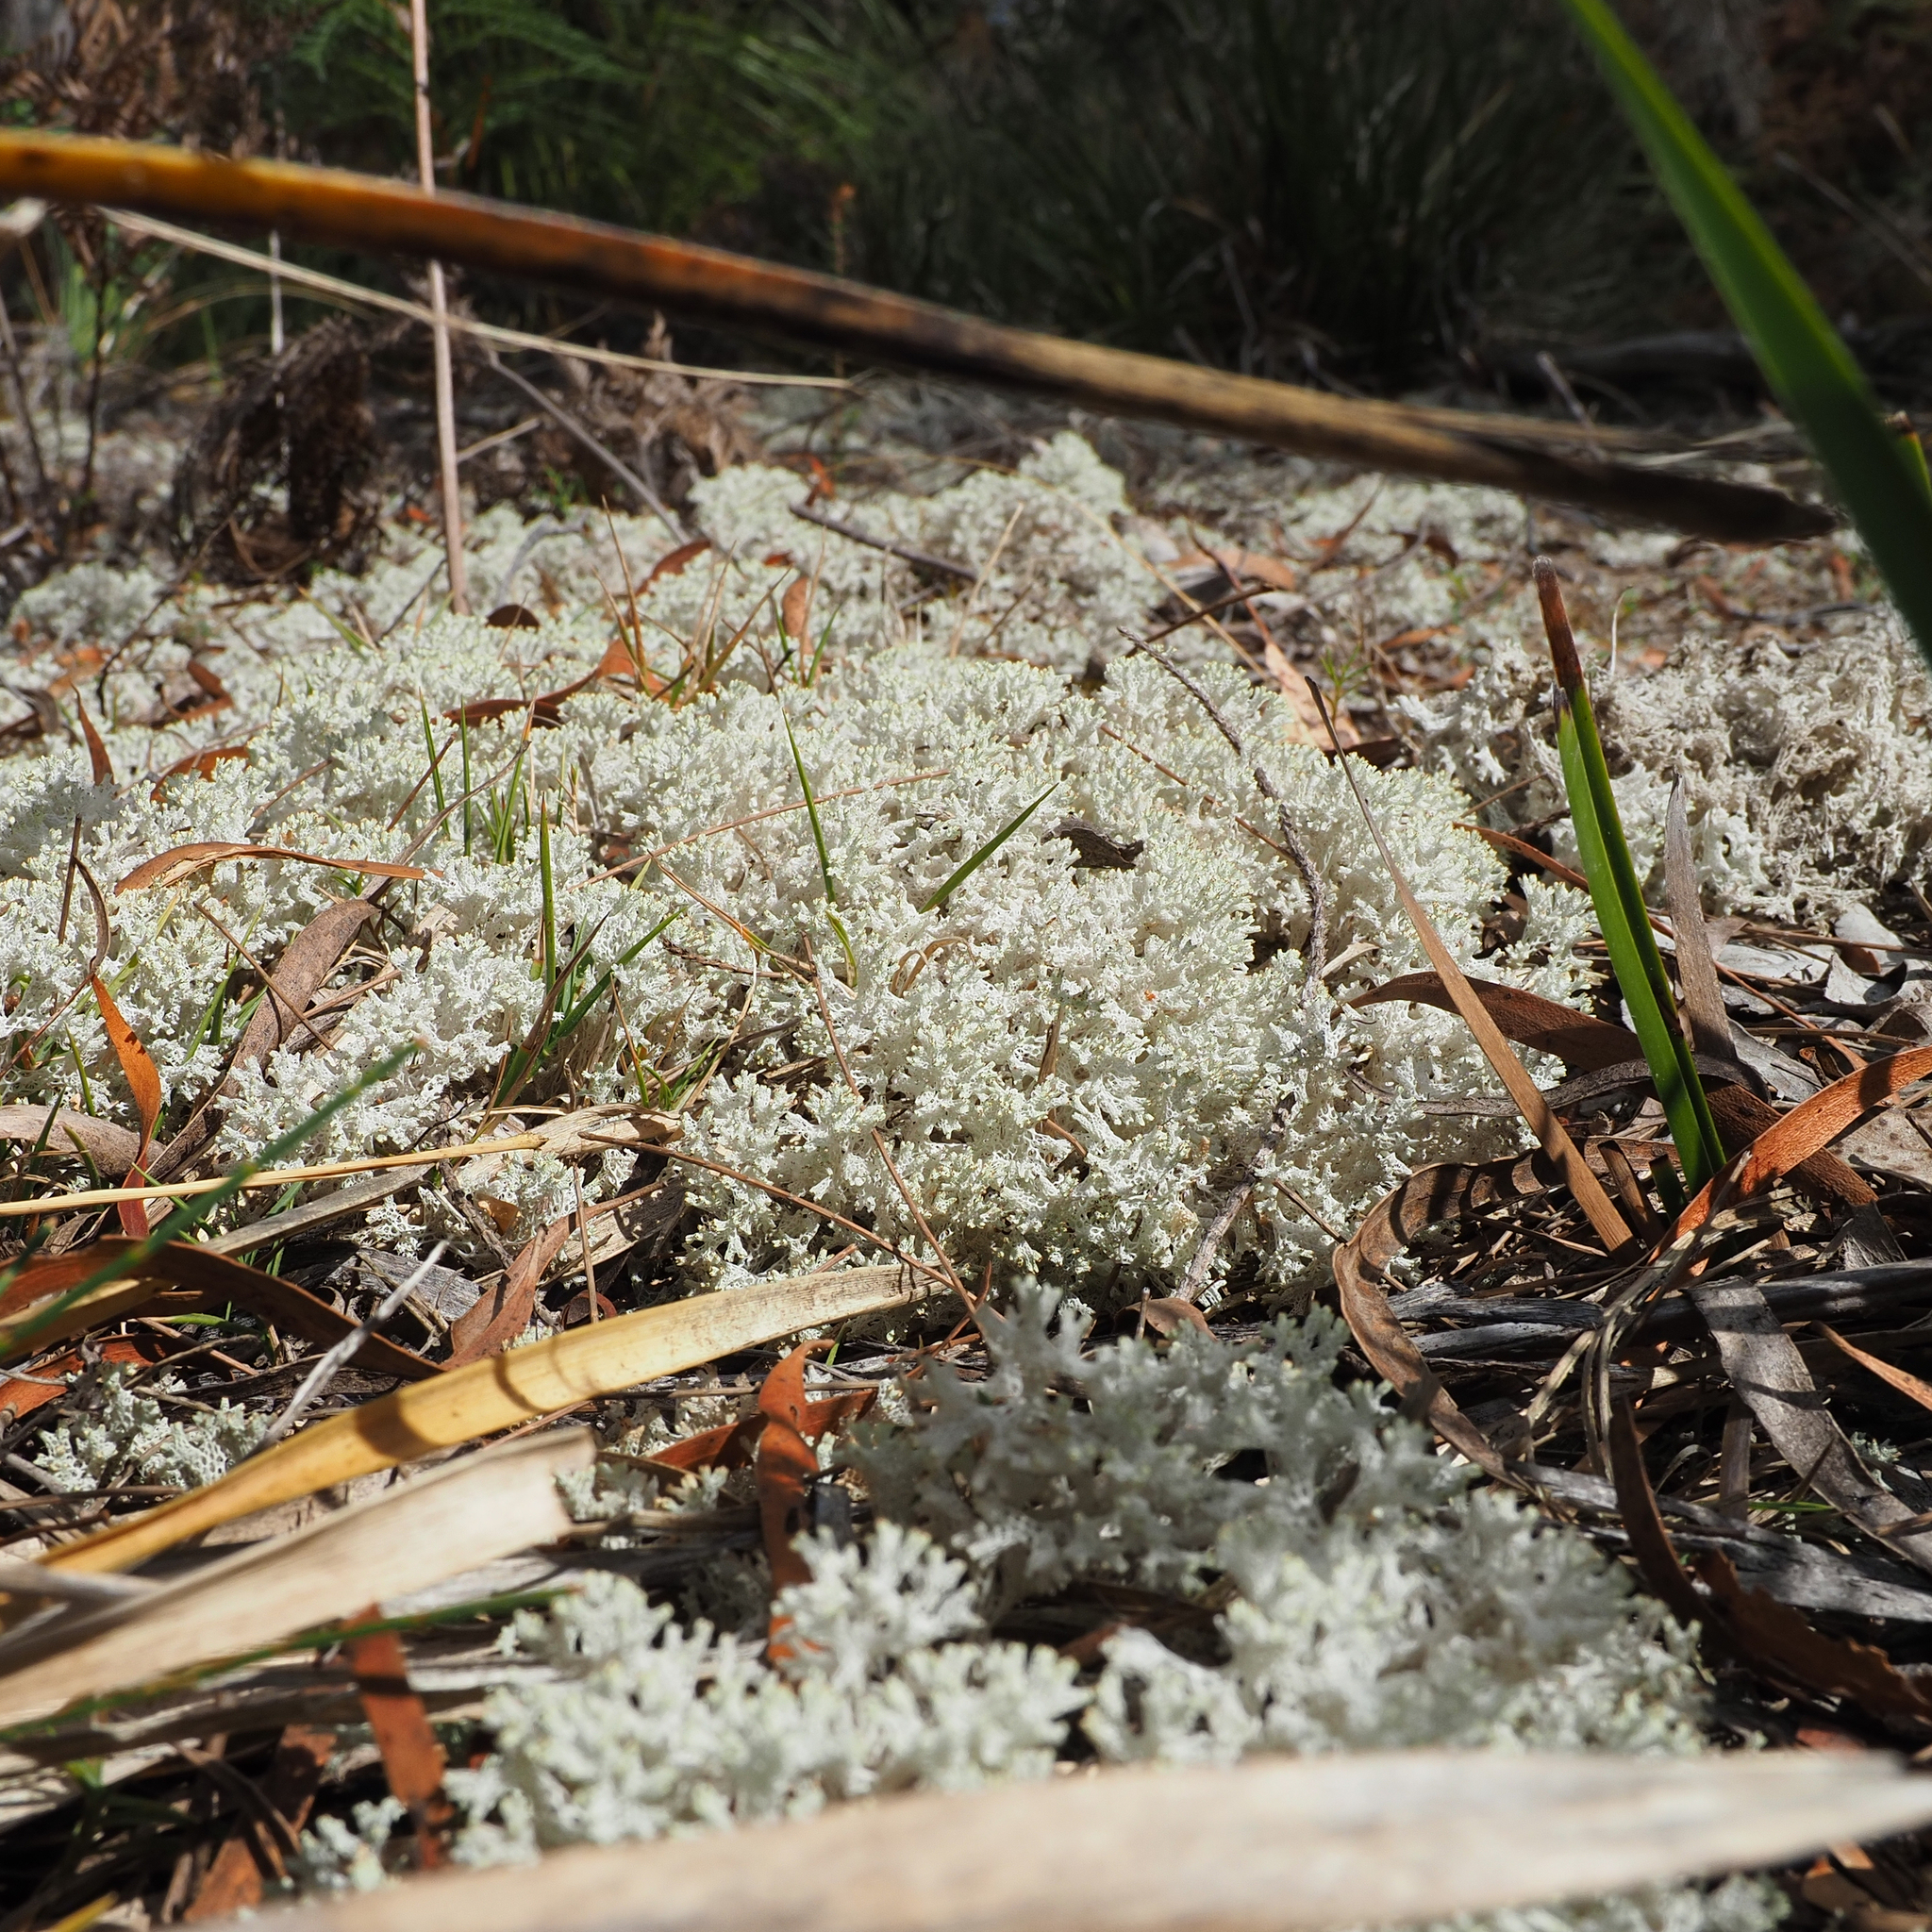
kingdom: Fungi
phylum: Ascomycota
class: Lecanoromycetes
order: Lecanorales
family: Cladoniaceae
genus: Pulchrocladia
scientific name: Pulchrocladia retipora
